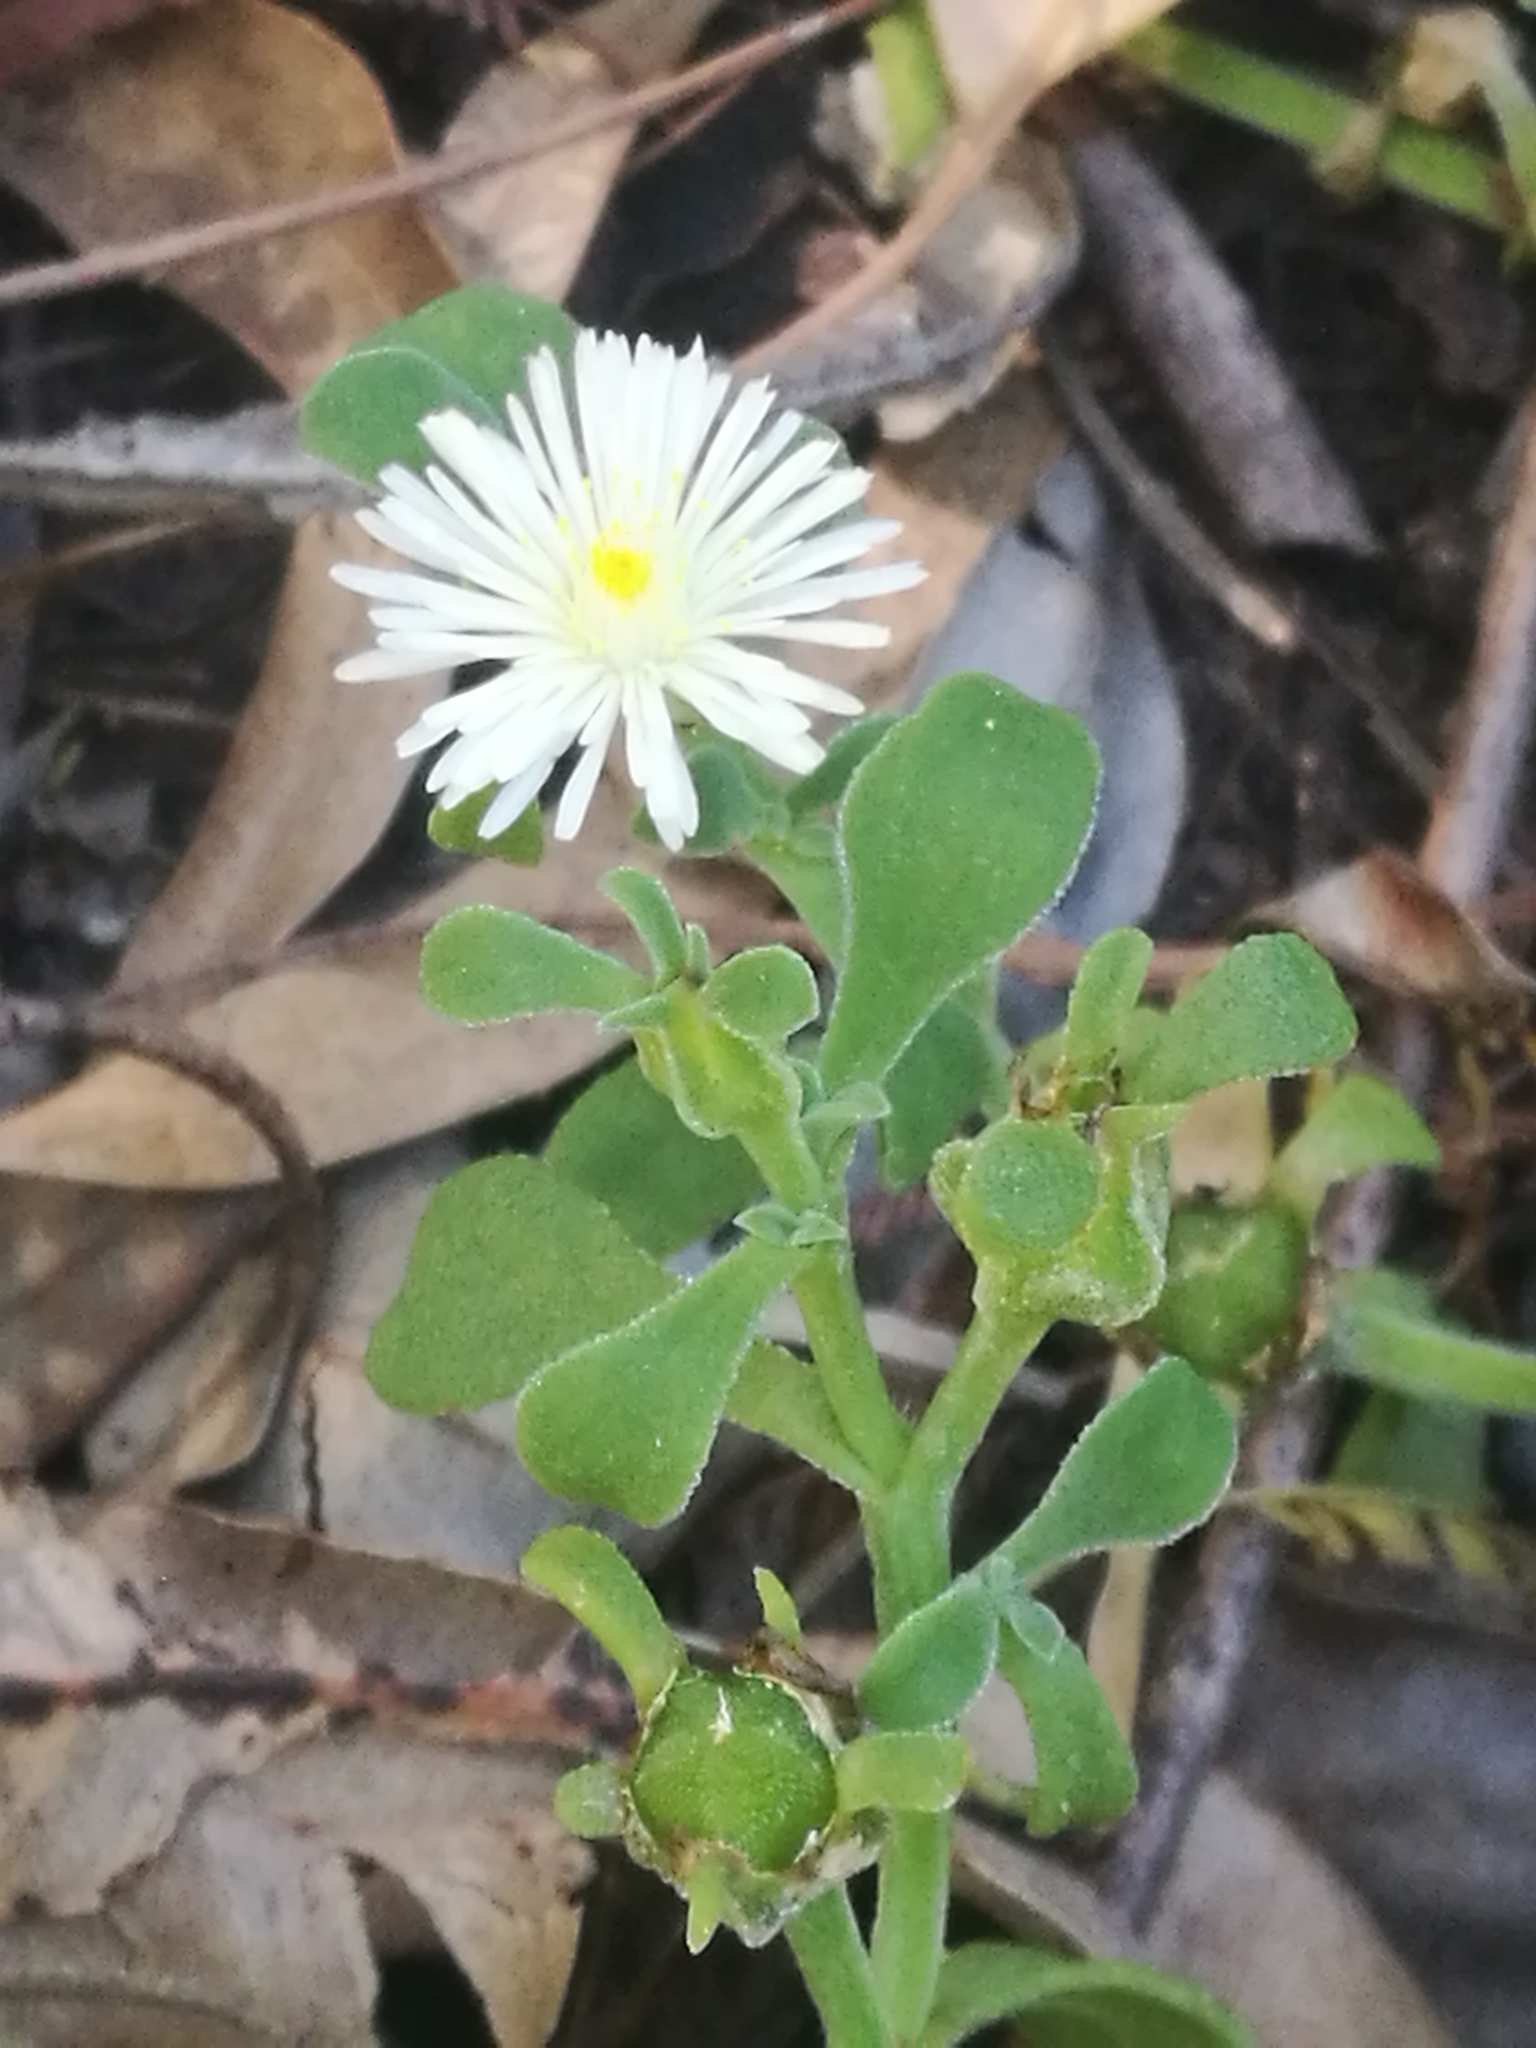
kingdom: Plantae
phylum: Tracheophyta
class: Magnoliopsida
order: Caryophyllales
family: Aizoaceae
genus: Mesembryanthemum
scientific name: Mesembryanthemum aitonis
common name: Angled iceplant
